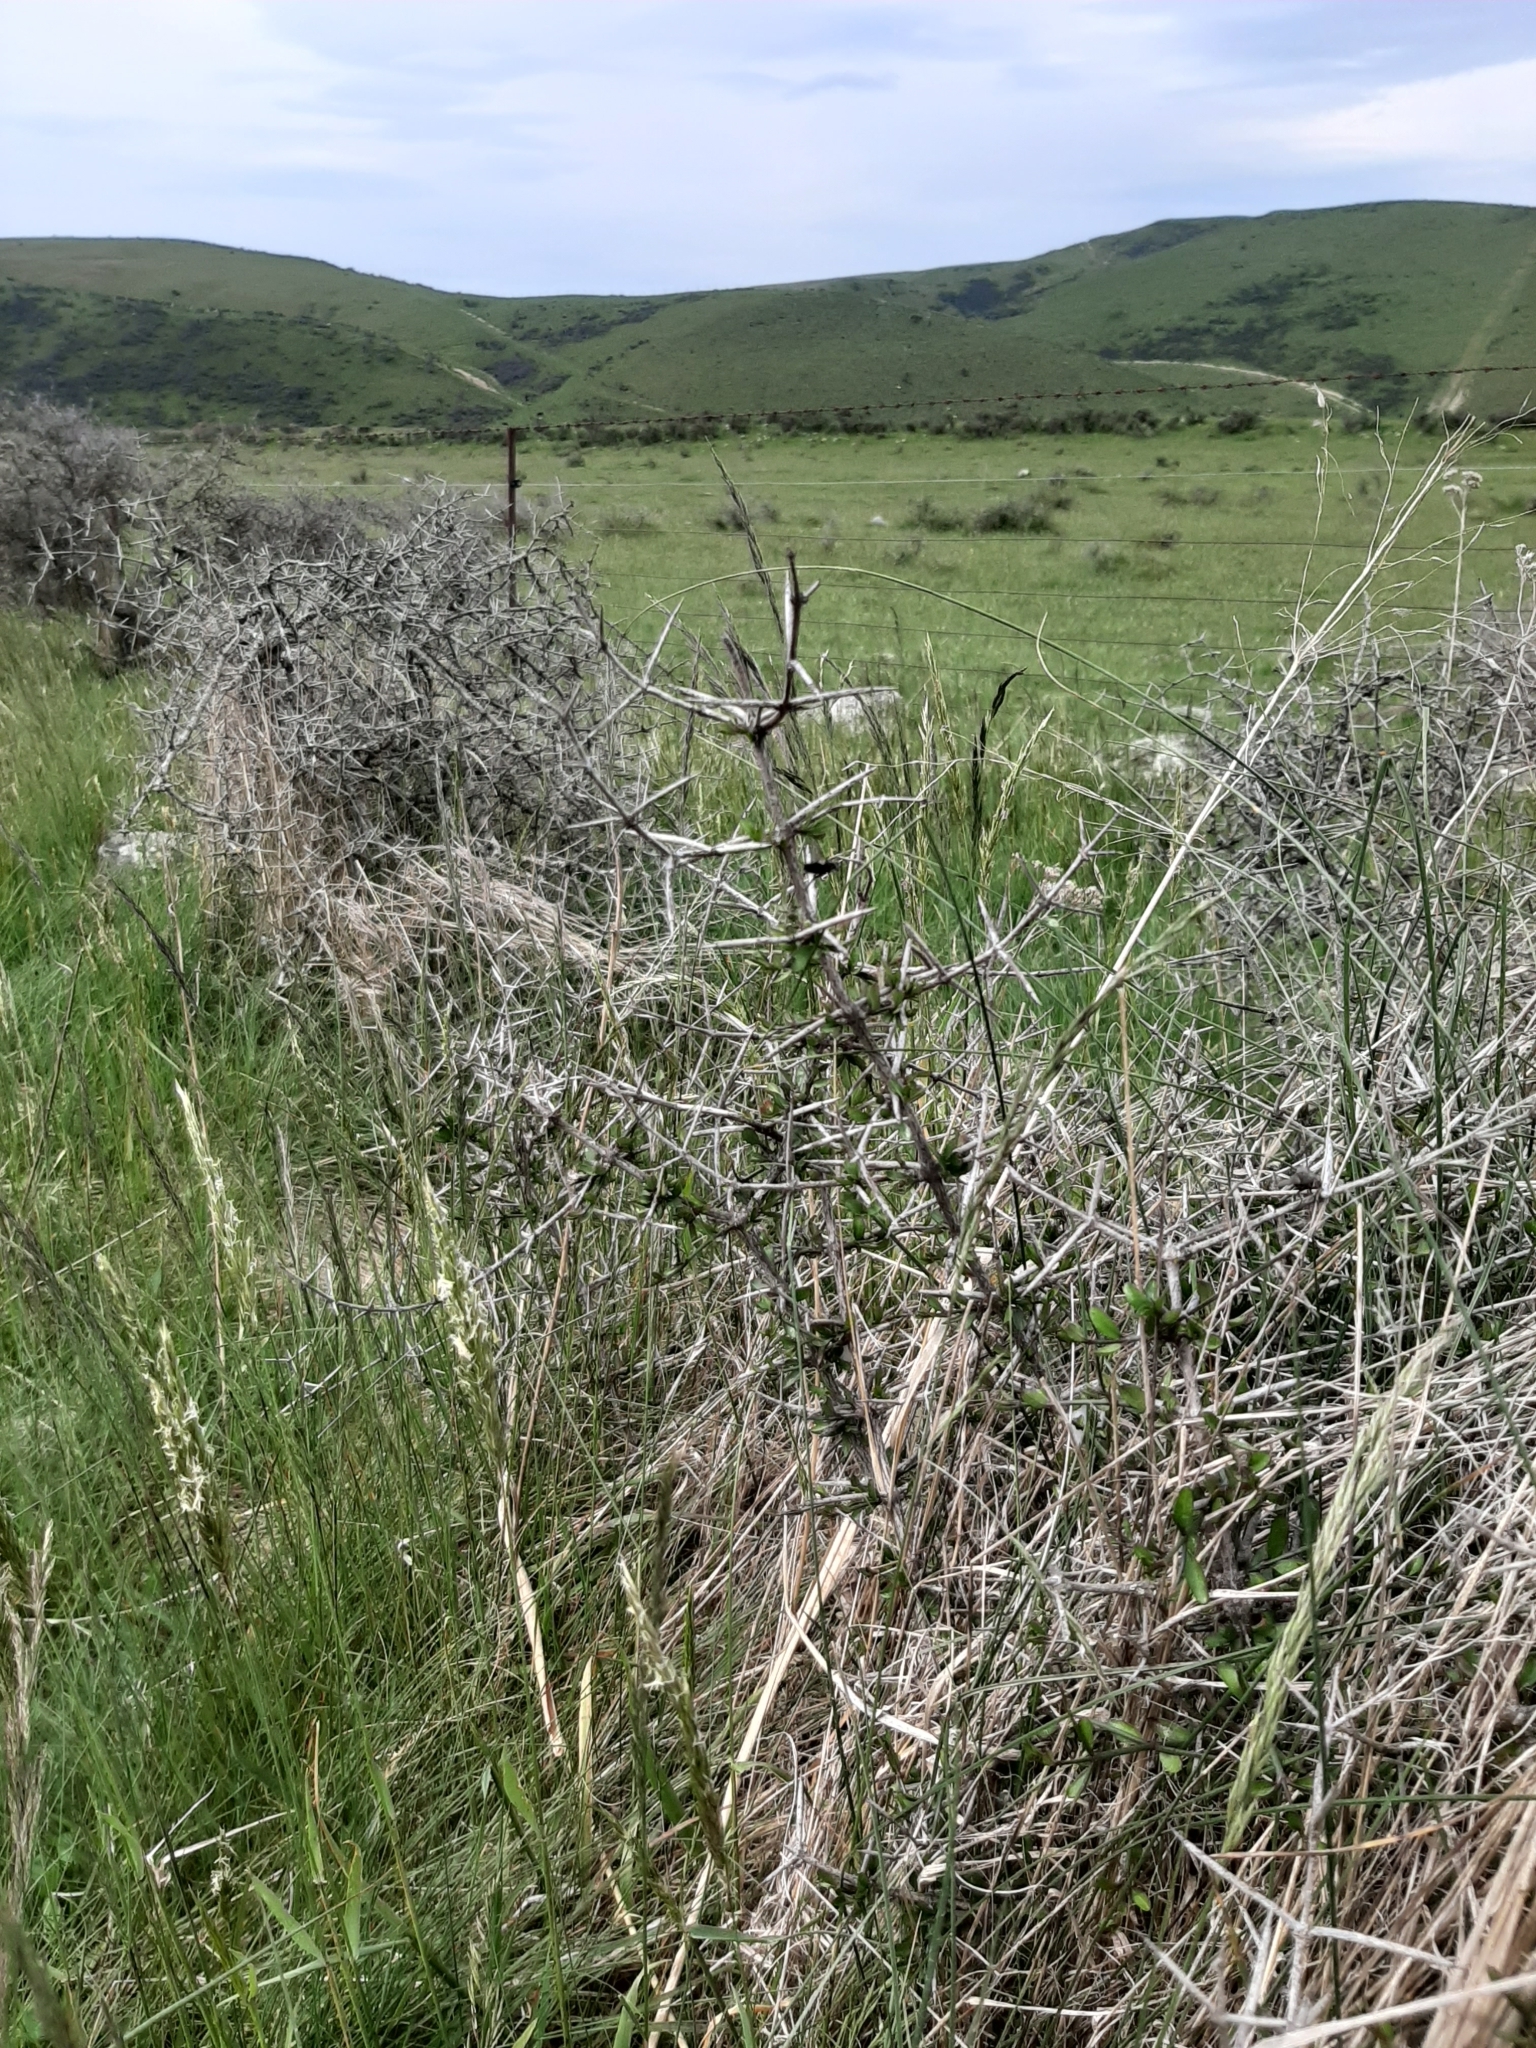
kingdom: Plantae
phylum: Tracheophyta
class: Magnoliopsida
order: Rosales
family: Rhamnaceae
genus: Discaria
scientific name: Discaria toumatou
